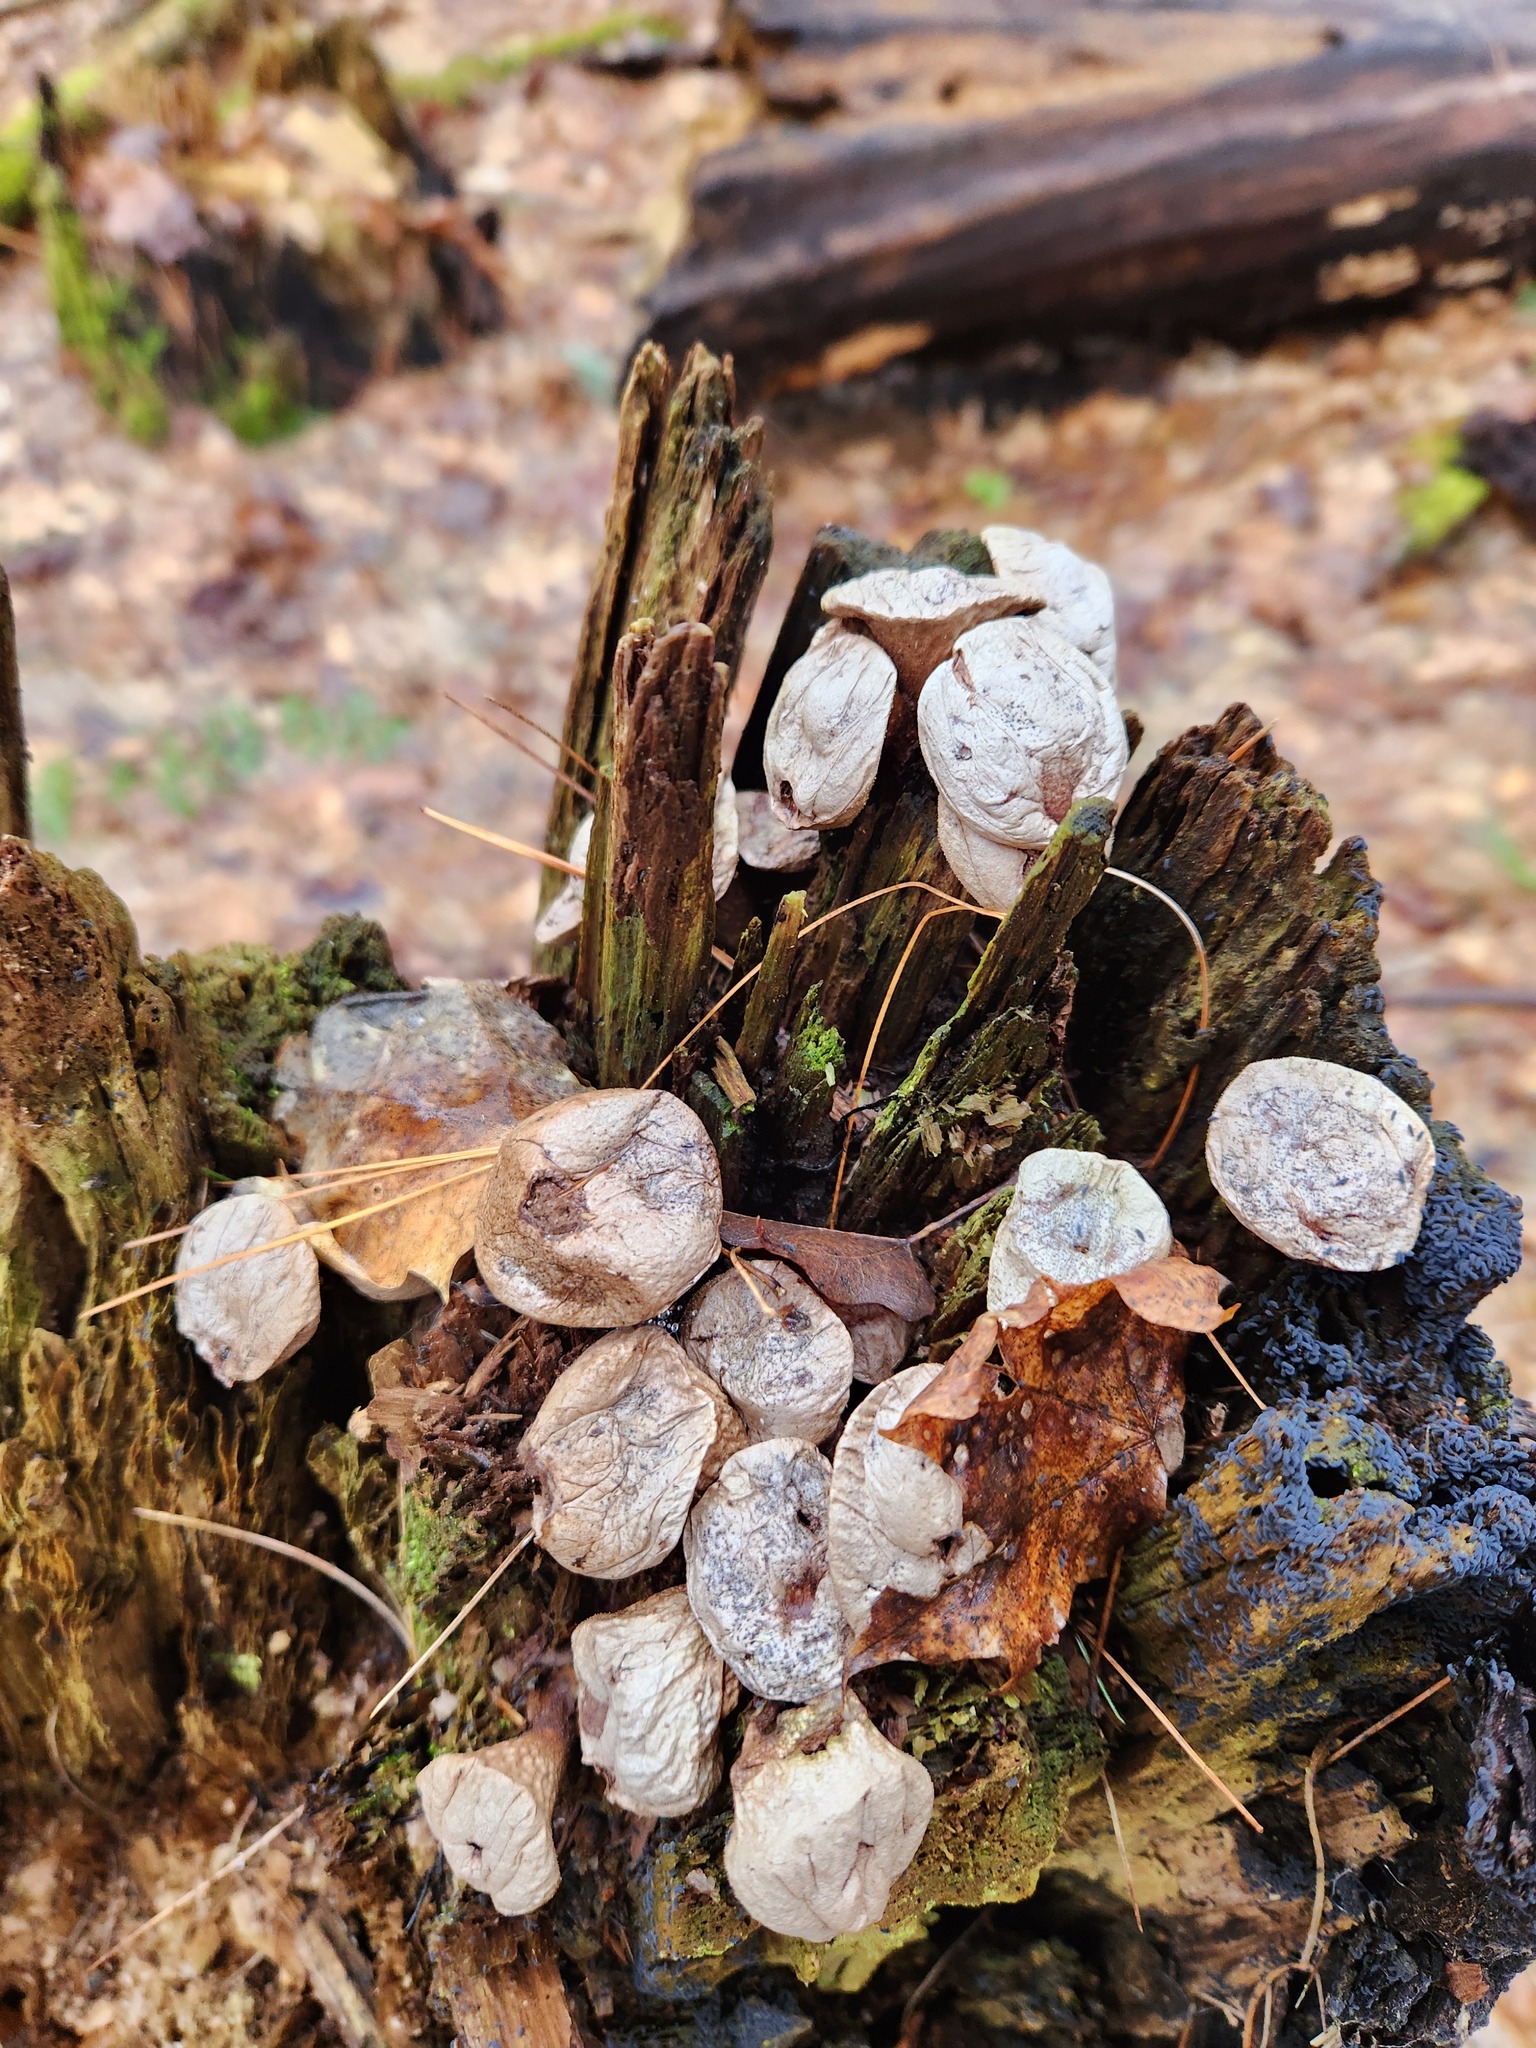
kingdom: Fungi
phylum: Basidiomycota
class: Agaricomycetes
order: Agaricales
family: Lycoperdaceae
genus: Apioperdon
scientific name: Apioperdon pyriforme
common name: Pear-shaped puffball
